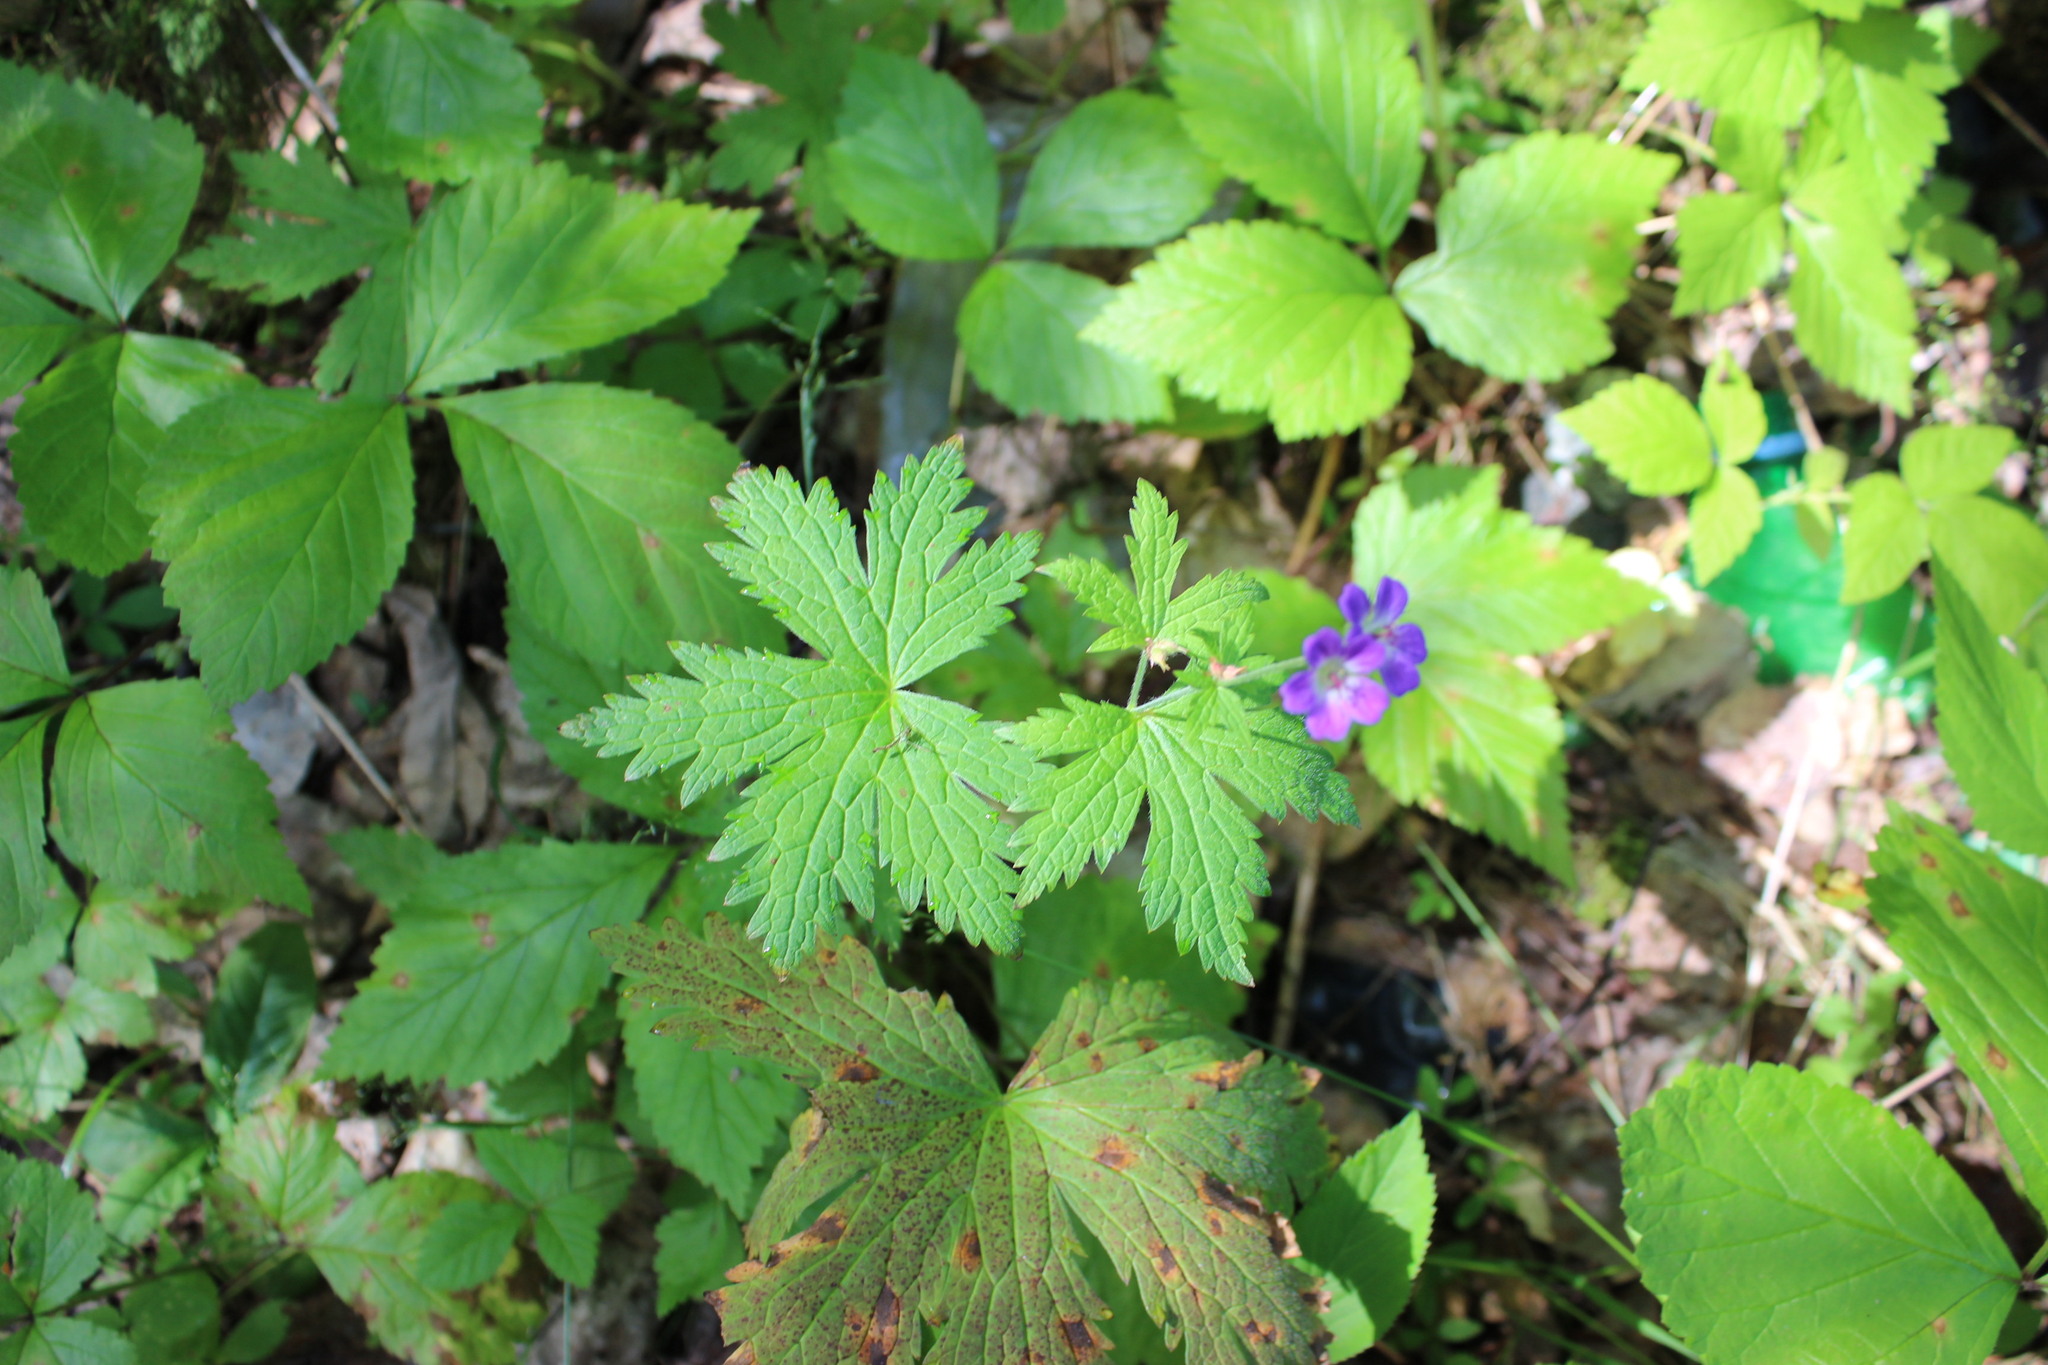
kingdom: Plantae
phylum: Tracheophyta
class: Magnoliopsida
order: Geraniales
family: Geraniaceae
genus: Geranium
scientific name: Geranium sylvaticum
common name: Wood crane's-bill
